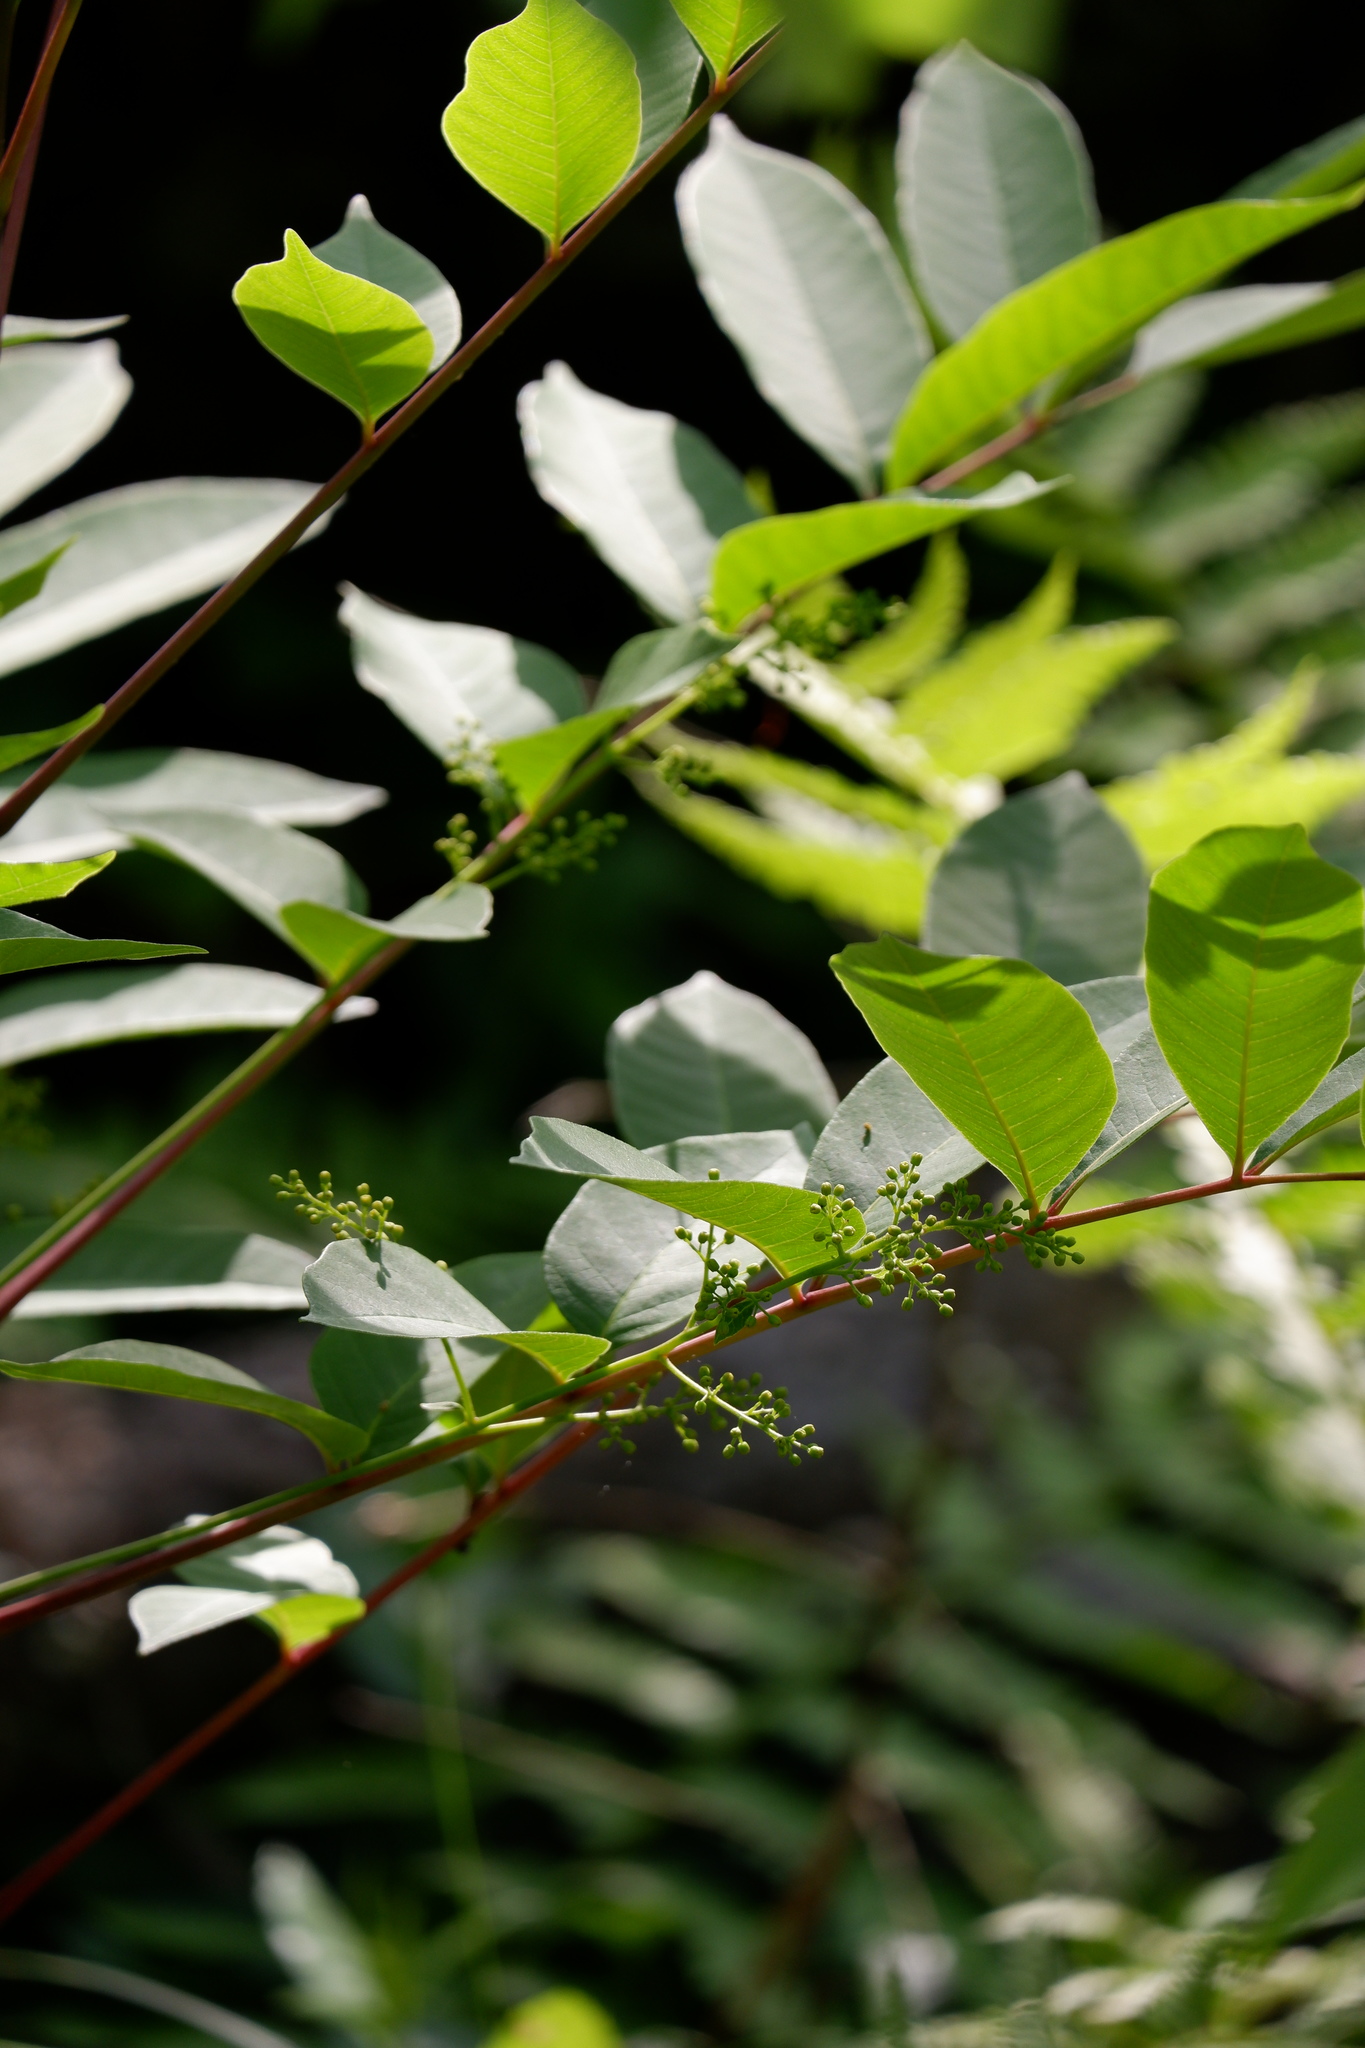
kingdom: Plantae
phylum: Tracheophyta
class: Magnoliopsida
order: Sapindales
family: Anacardiaceae
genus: Toxicodendron
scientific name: Toxicodendron vernix
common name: Poison sumac
